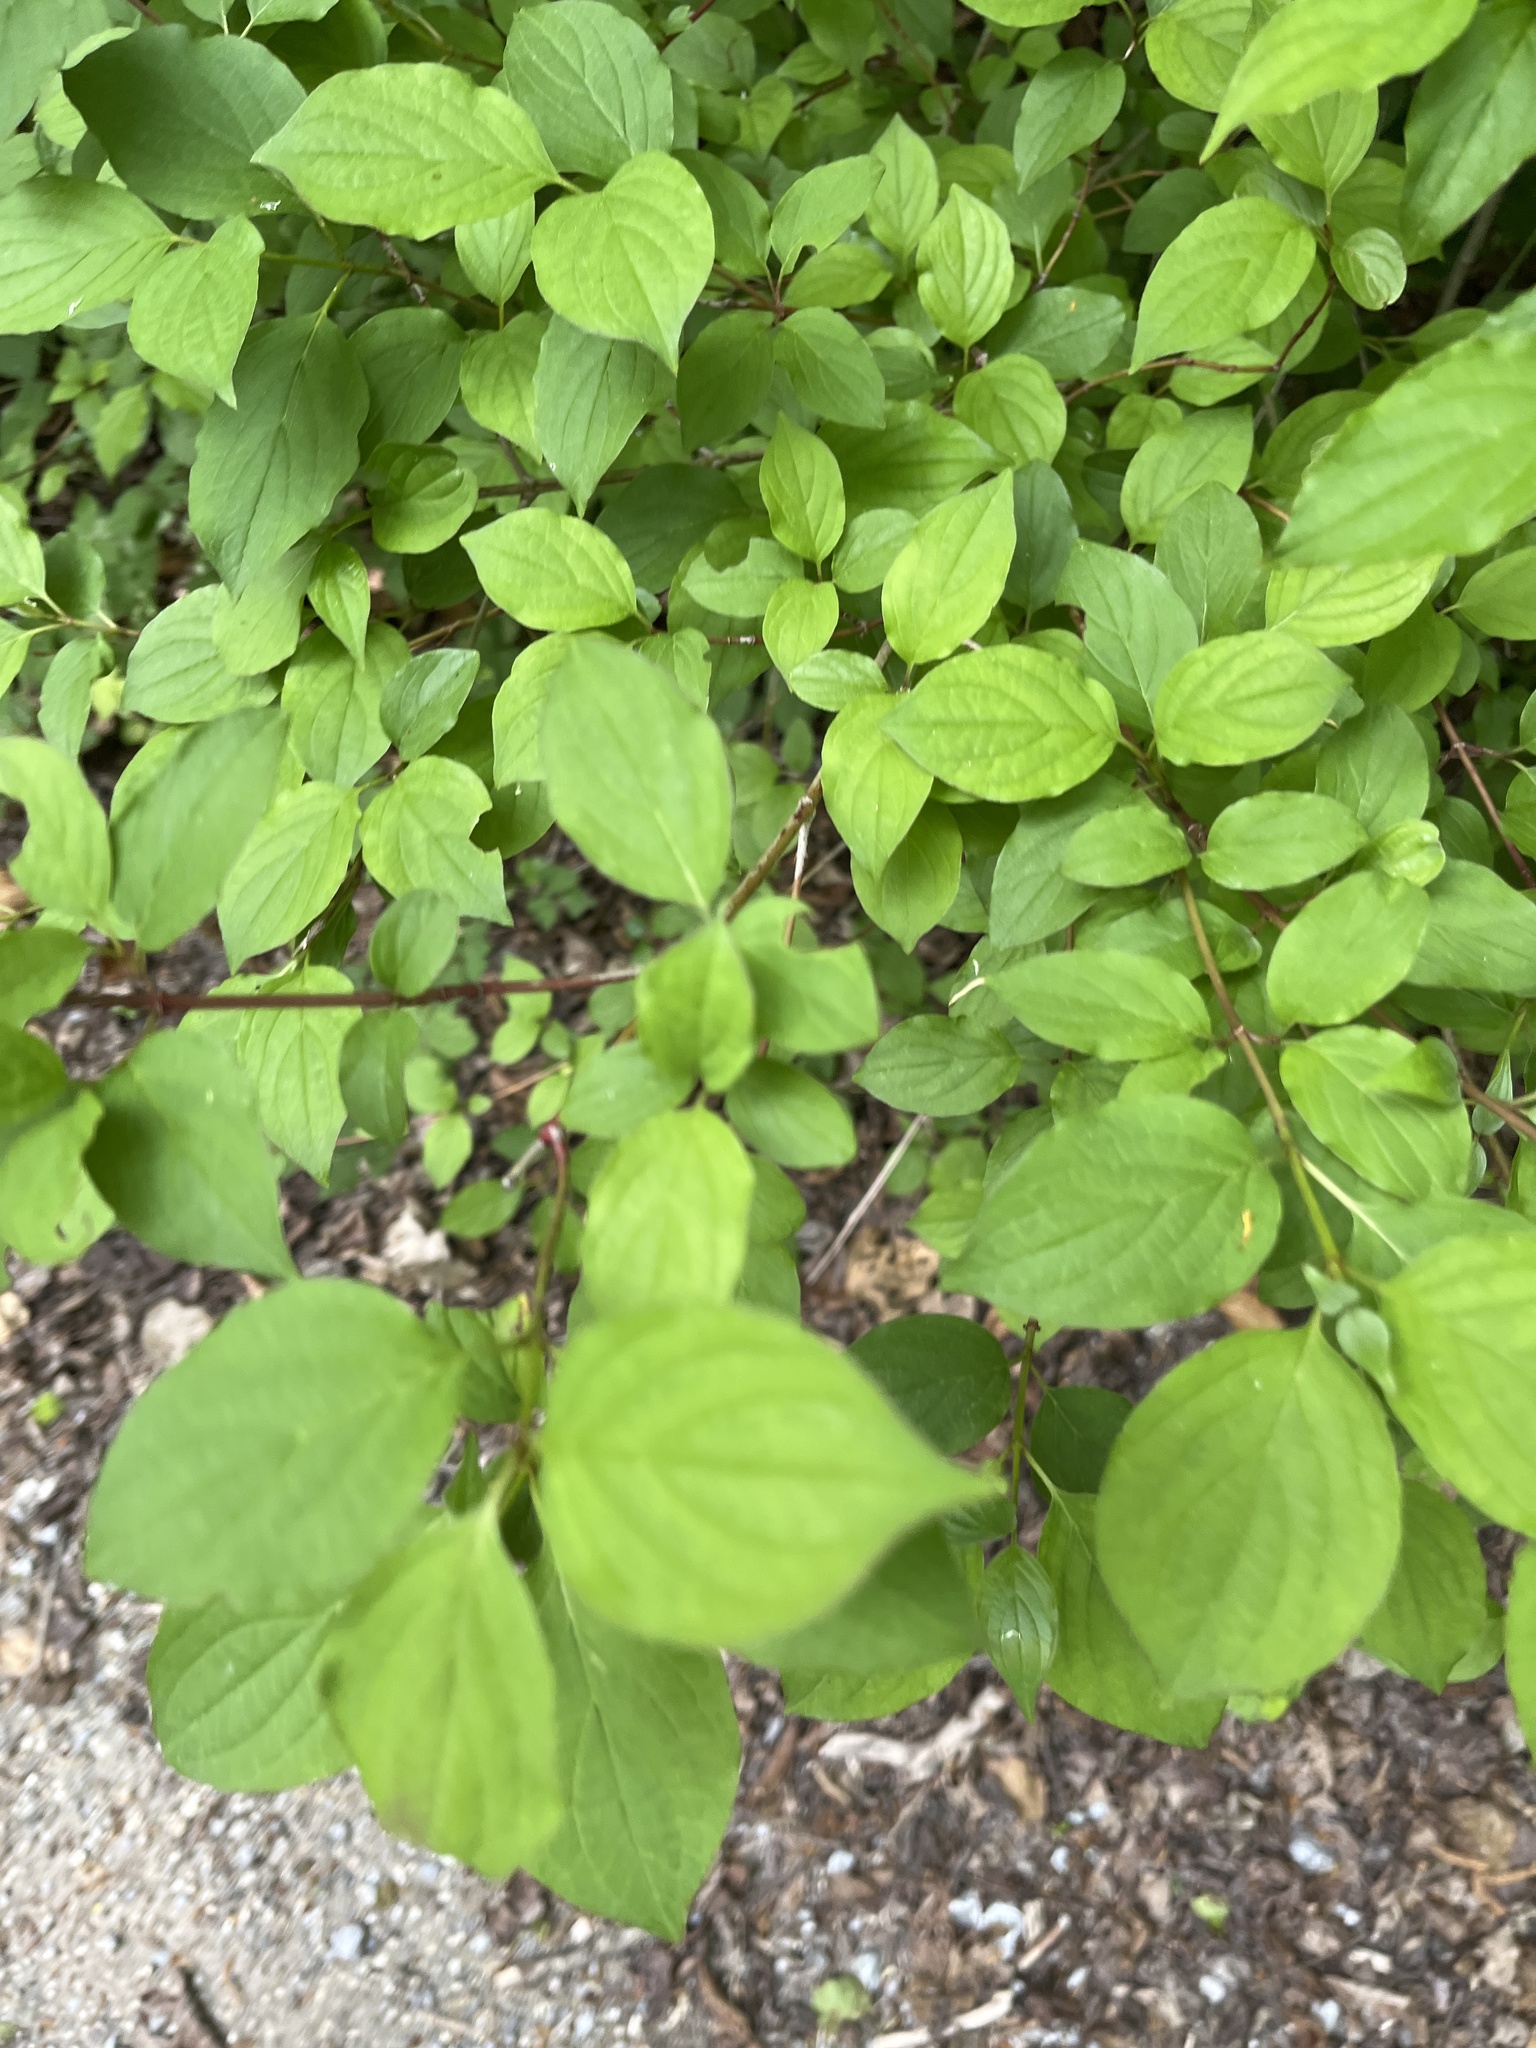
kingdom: Plantae
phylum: Tracheophyta
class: Magnoliopsida
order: Cornales
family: Cornaceae
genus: Cornus
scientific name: Cornus sanguinea
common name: Dogwood
